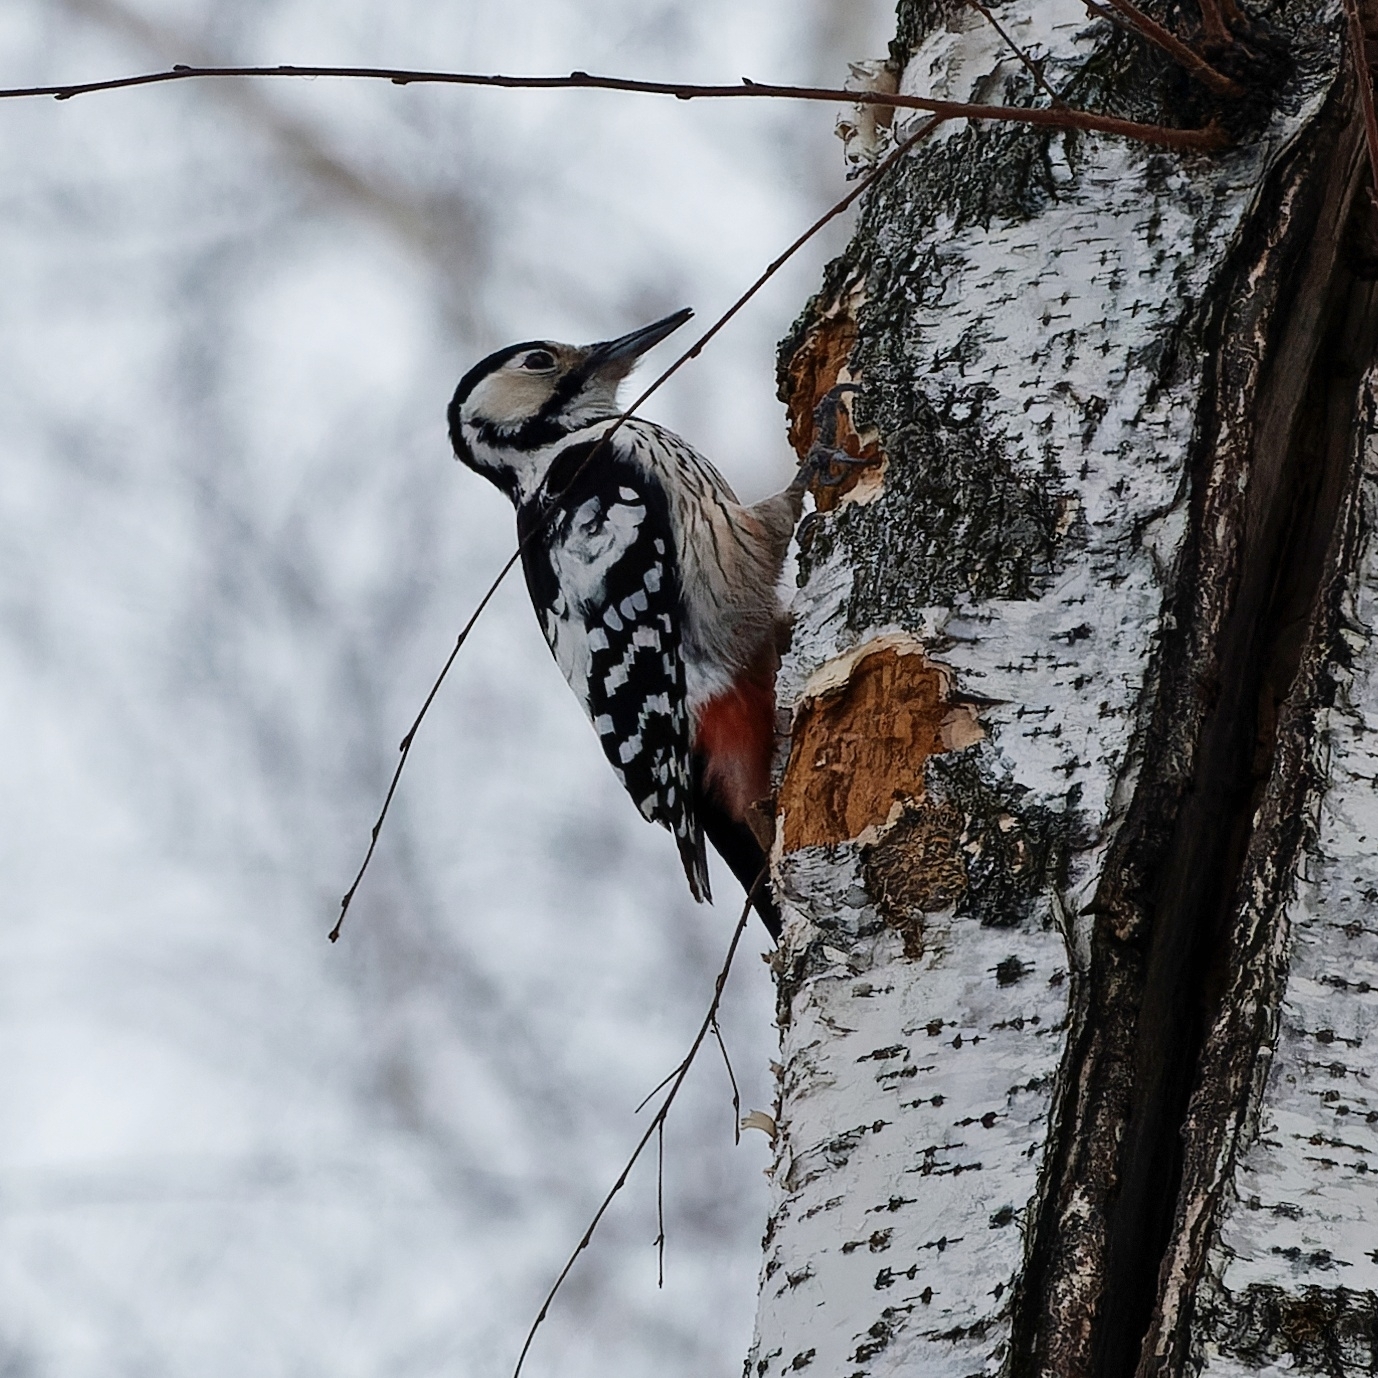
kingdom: Animalia
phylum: Chordata
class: Aves
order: Piciformes
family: Picidae
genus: Dendrocopos
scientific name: Dendrocopos leucotos
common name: White-backed woodpecker
